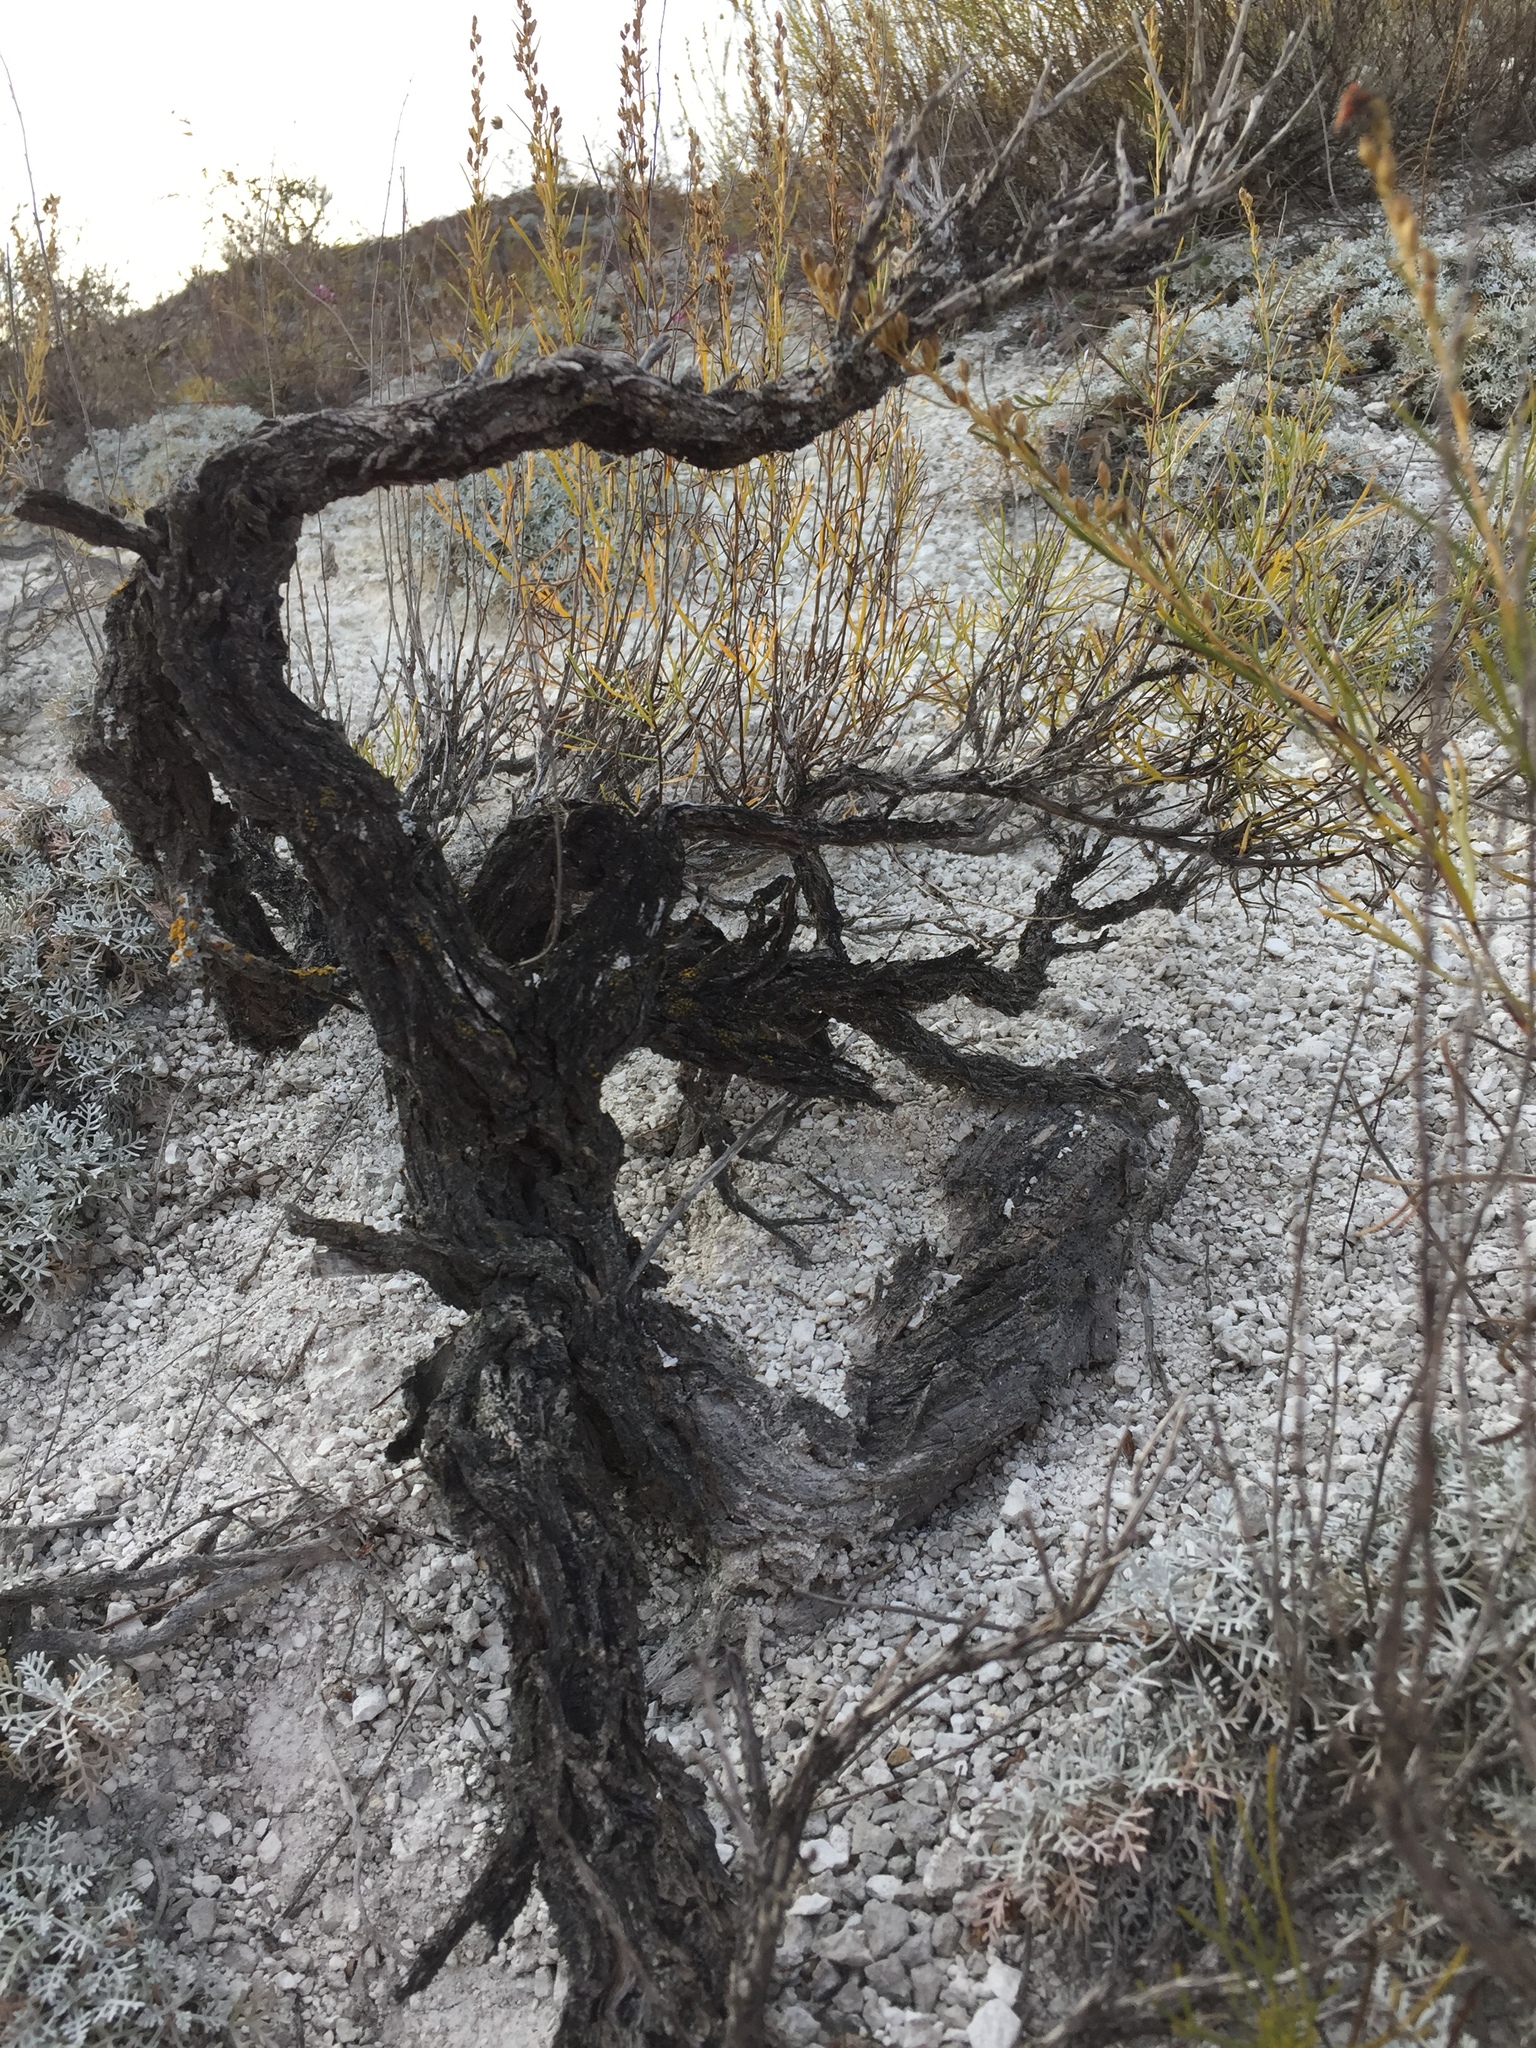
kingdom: Plantae
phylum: Tracheophyta
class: Magnoliopsida
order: Asterales
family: Asteraceae
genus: Artemisia
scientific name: Artemisia salsoloides
